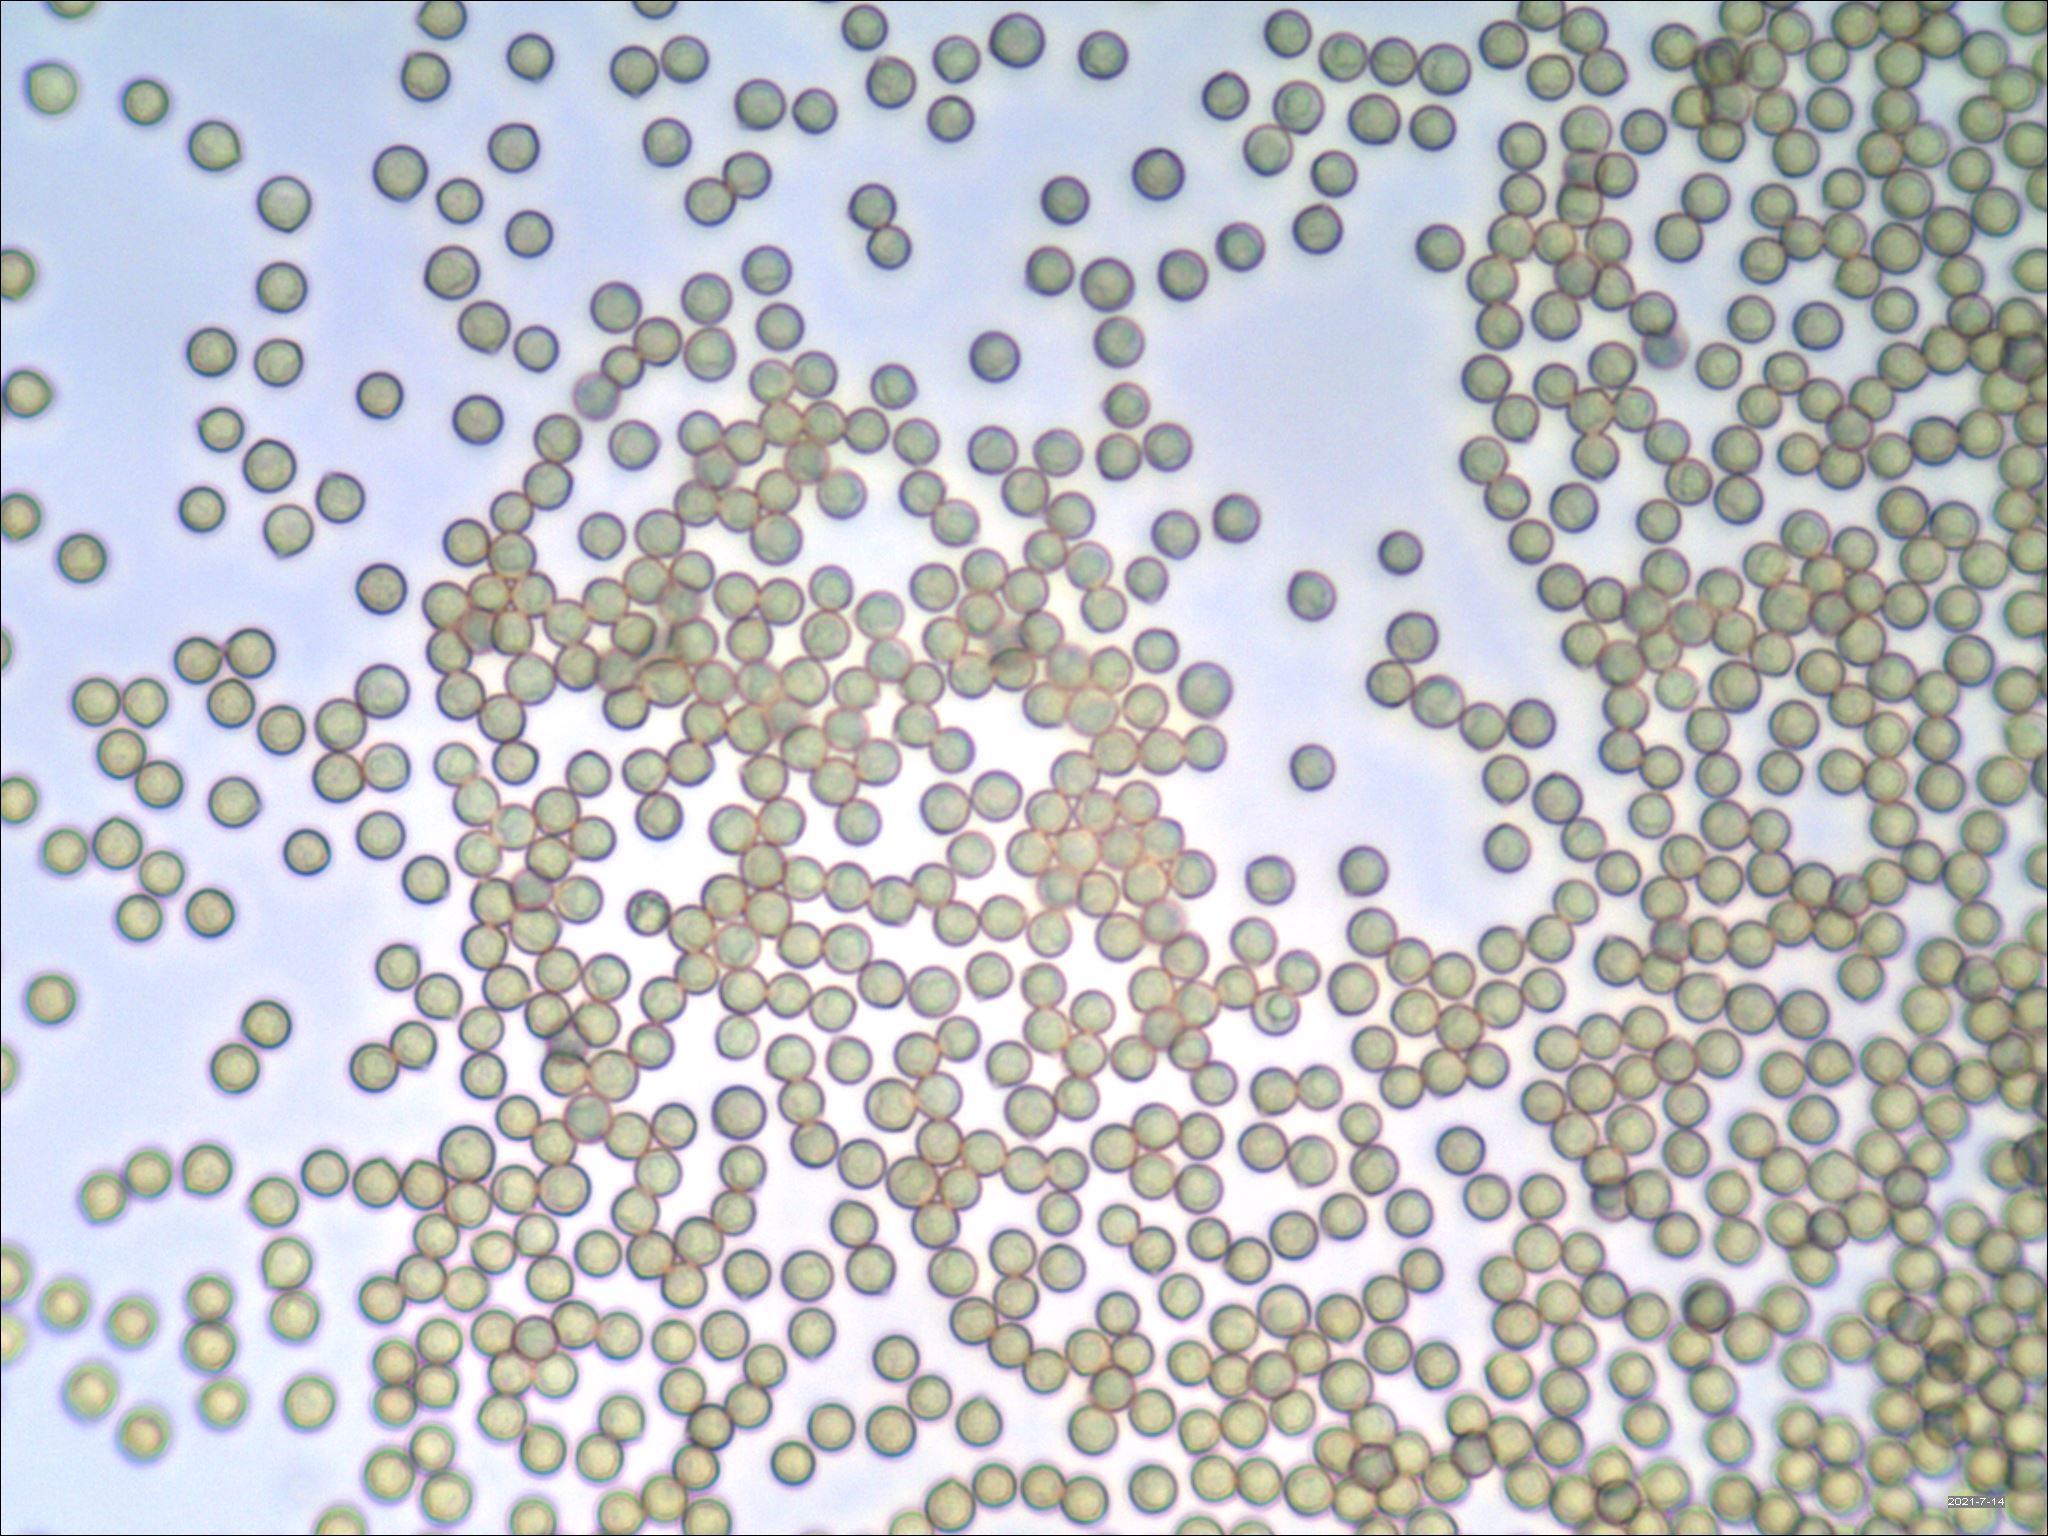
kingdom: Fungi
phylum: Basidiomycota
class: Agaricomycetes
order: Agaricales
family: Crepidotaceae
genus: Crepidotus
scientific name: Crepidotus crocophyllus
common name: Saffron oysterling
